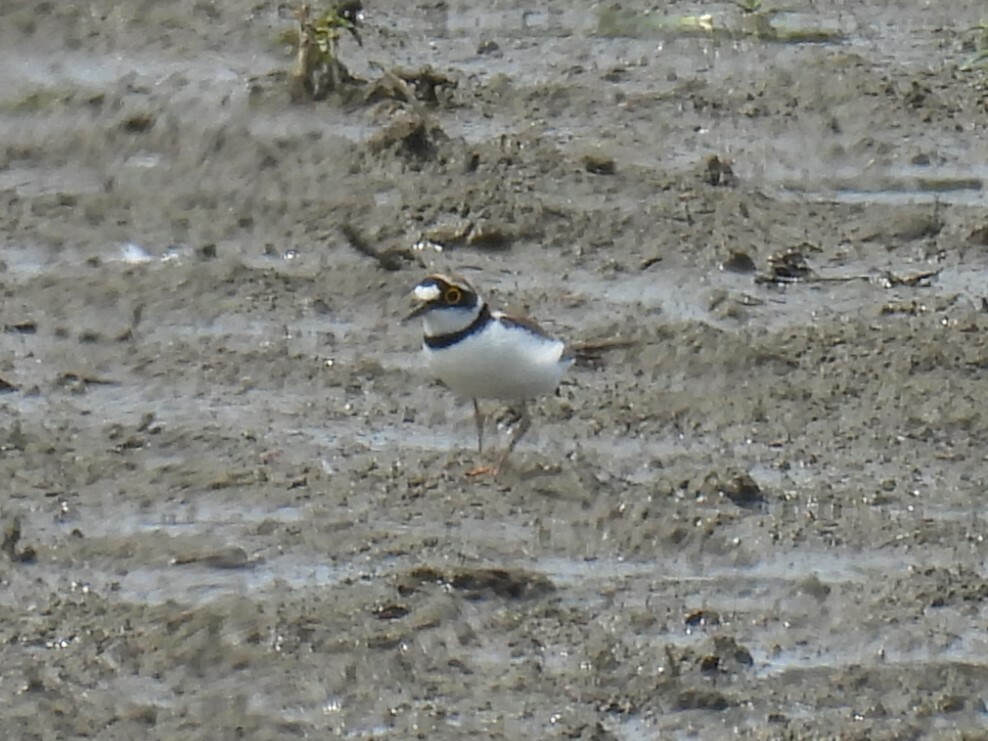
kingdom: Animalia
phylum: Chordata
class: Aves
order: Charadriiformes
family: Charadriidae
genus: Charadrius
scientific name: Charadrius dubius
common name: Little ringed plover
